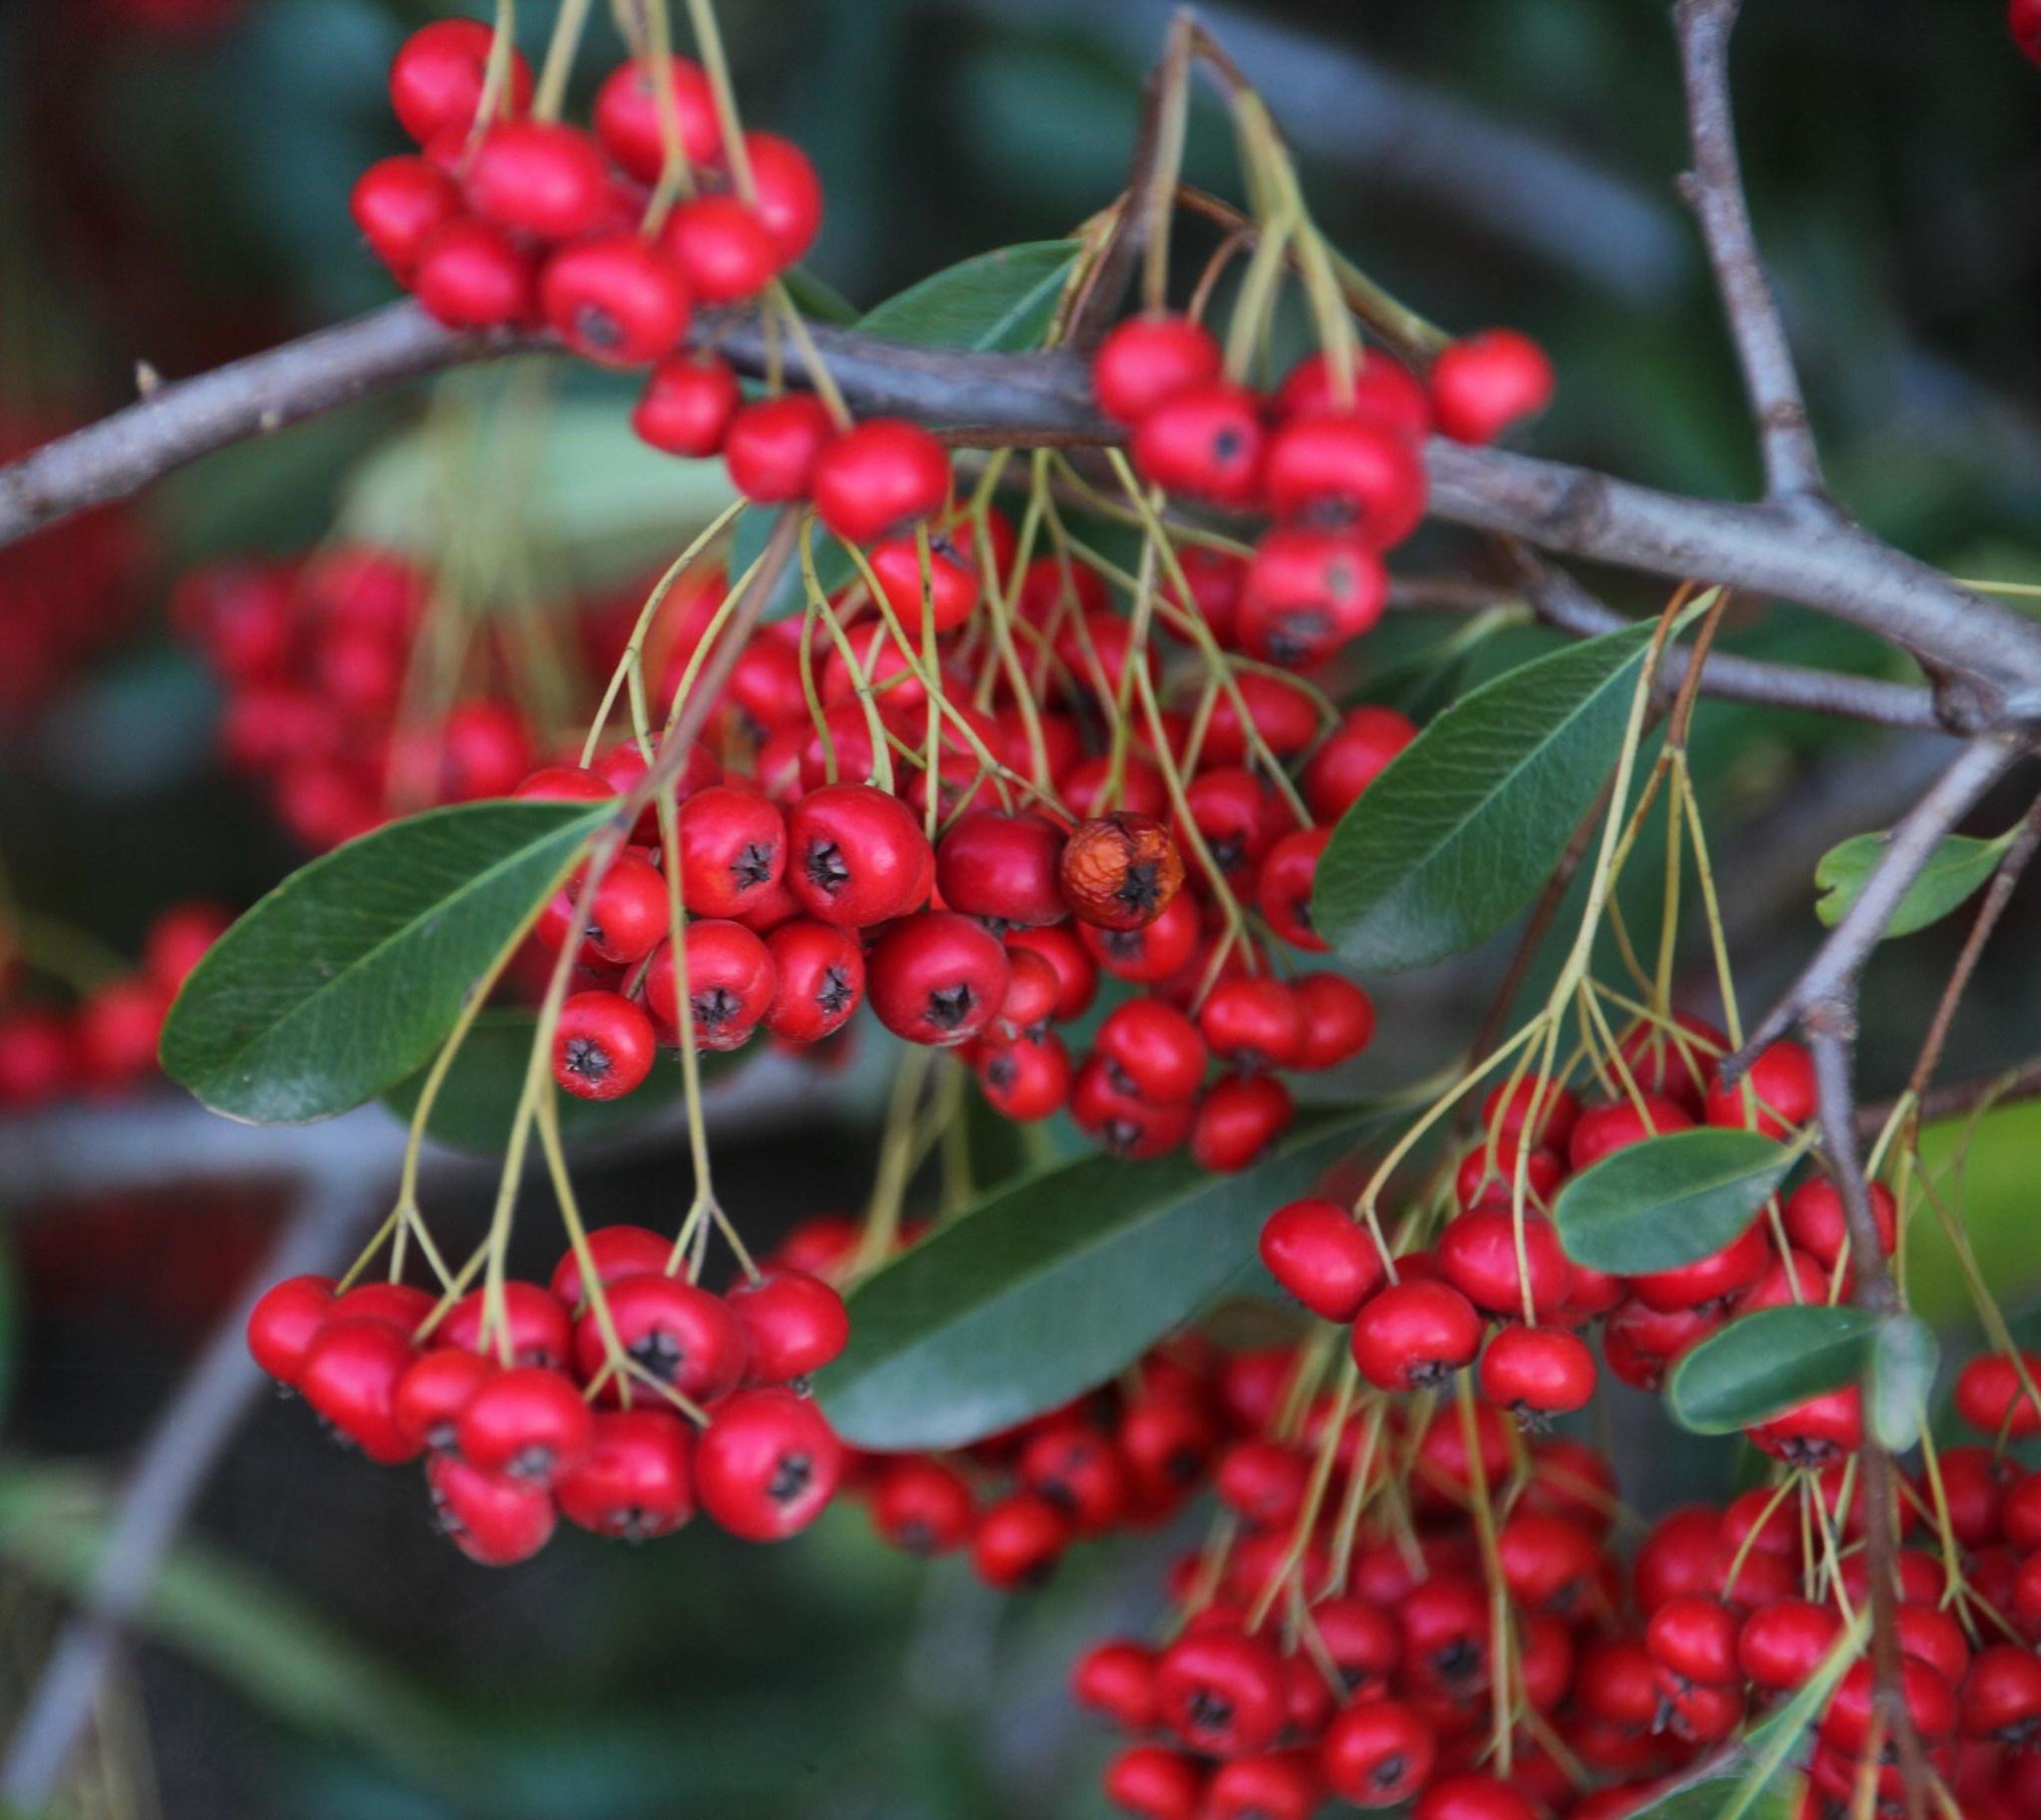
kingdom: Plantae
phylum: Tracheophyta
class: Magnoliopsida
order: Rosales
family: Rosaceae
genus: Pyracantha
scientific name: Pyracantha angustifolia
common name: Narrowleaf firethorn
